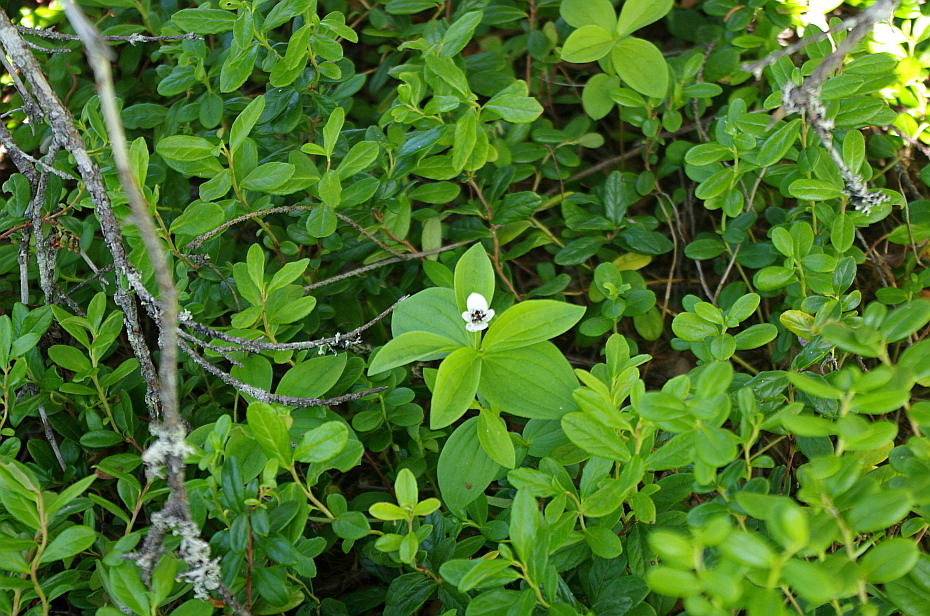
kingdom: Plantae
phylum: Tracheophyta
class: Magnoliopsida
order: Cornales
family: Cornaceae
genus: Cornus
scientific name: Cornus suecica
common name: Dwarf cornel
